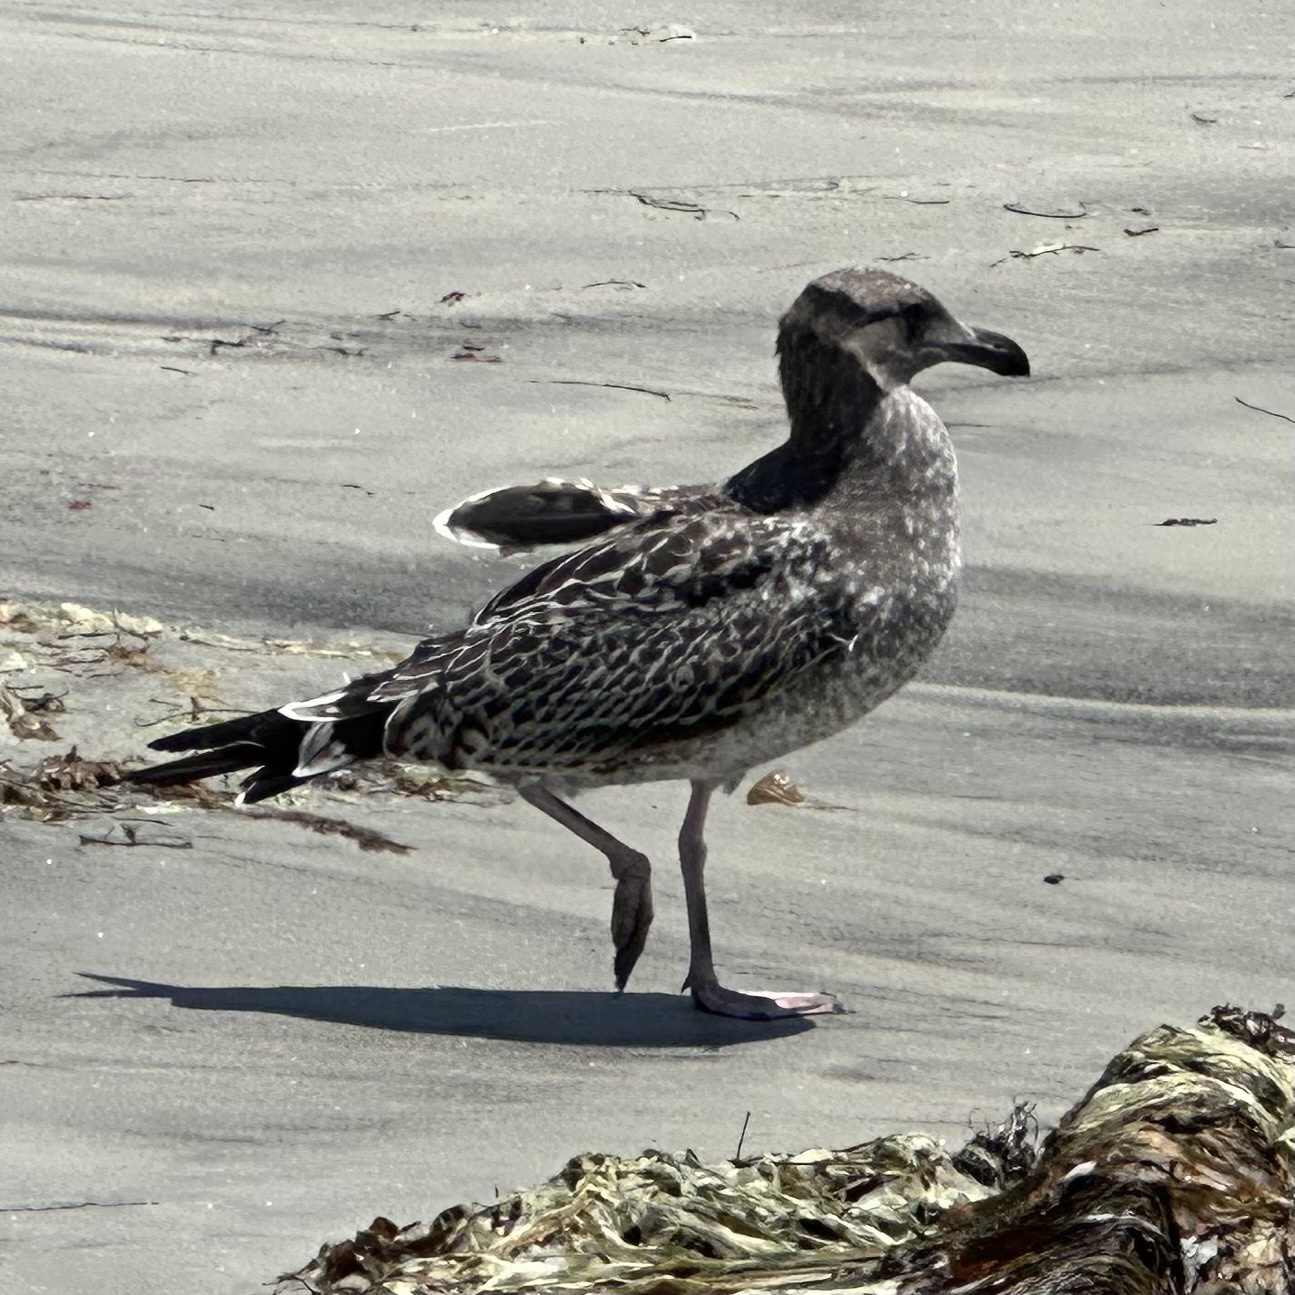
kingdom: Animalia
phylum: Chordata
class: Aves
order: Charadriiformes
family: Laridae
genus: Larus
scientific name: Larus occidentalis
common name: Western gull
